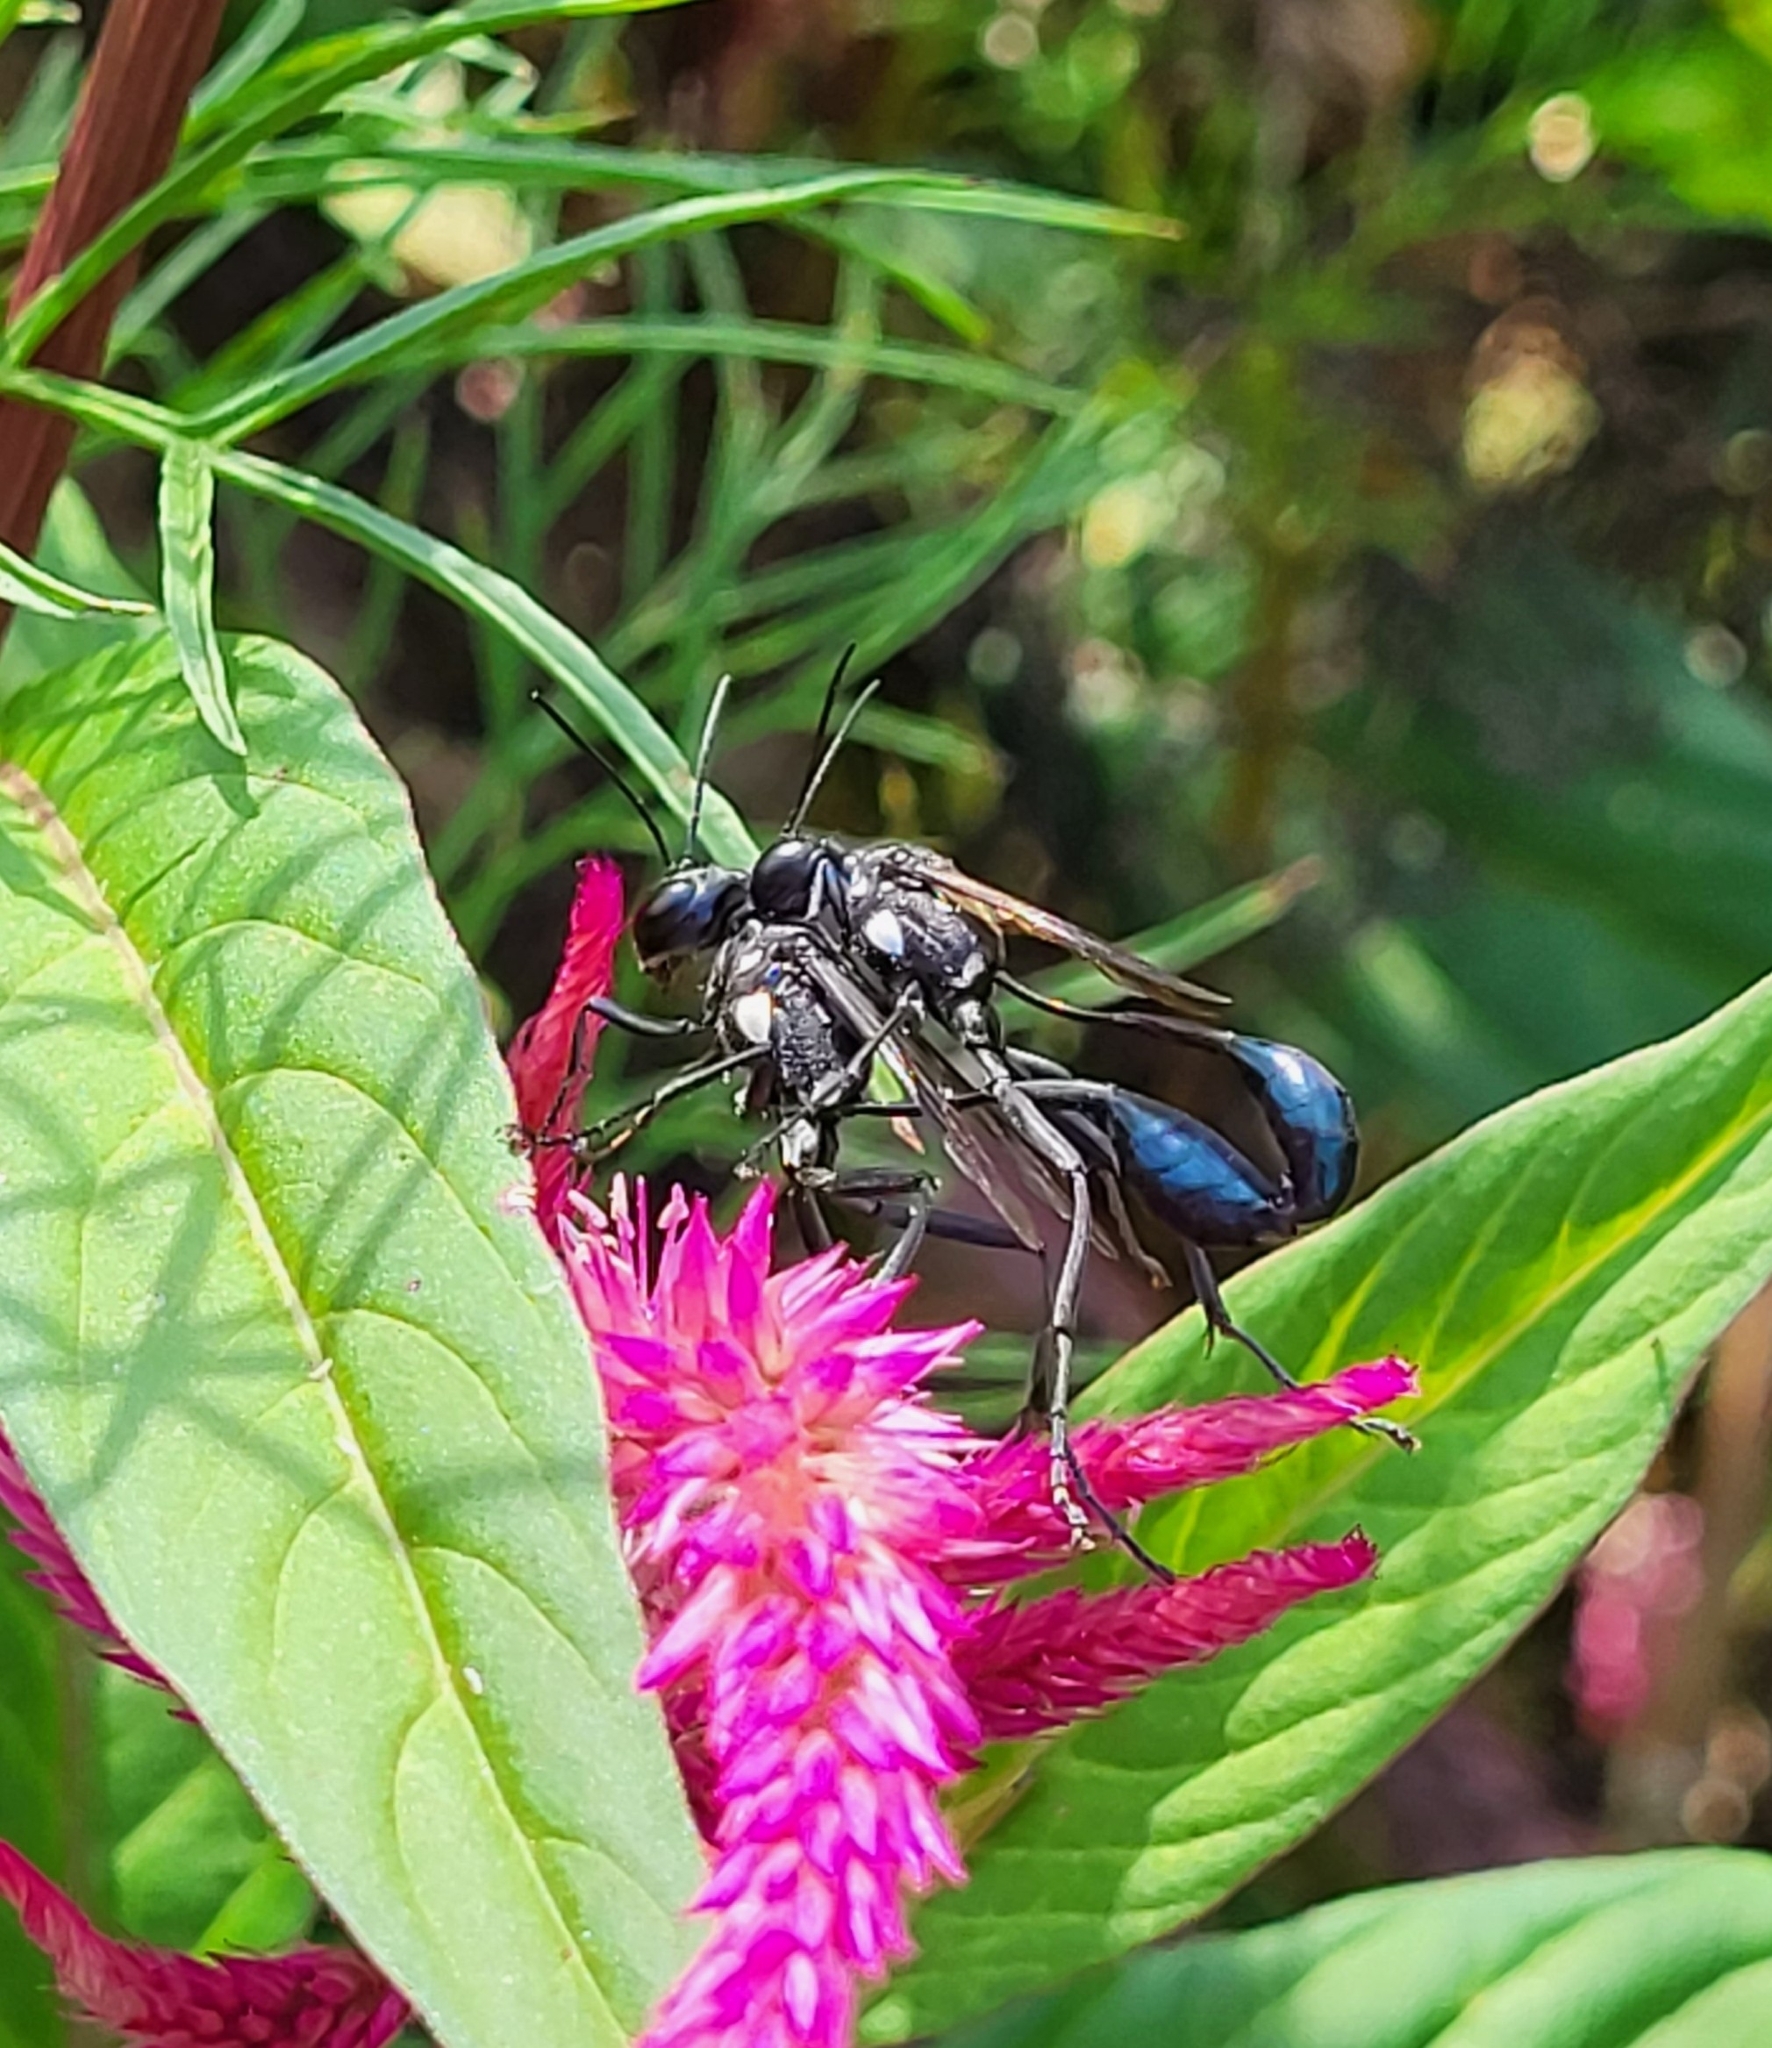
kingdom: Animalia
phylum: Arthropoda
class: Insecta
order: Hymenoptera
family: Sphecidae
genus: Eremnophila
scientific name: Eremnophila aureonotata
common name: Gold-marked thread-waisted wasp
